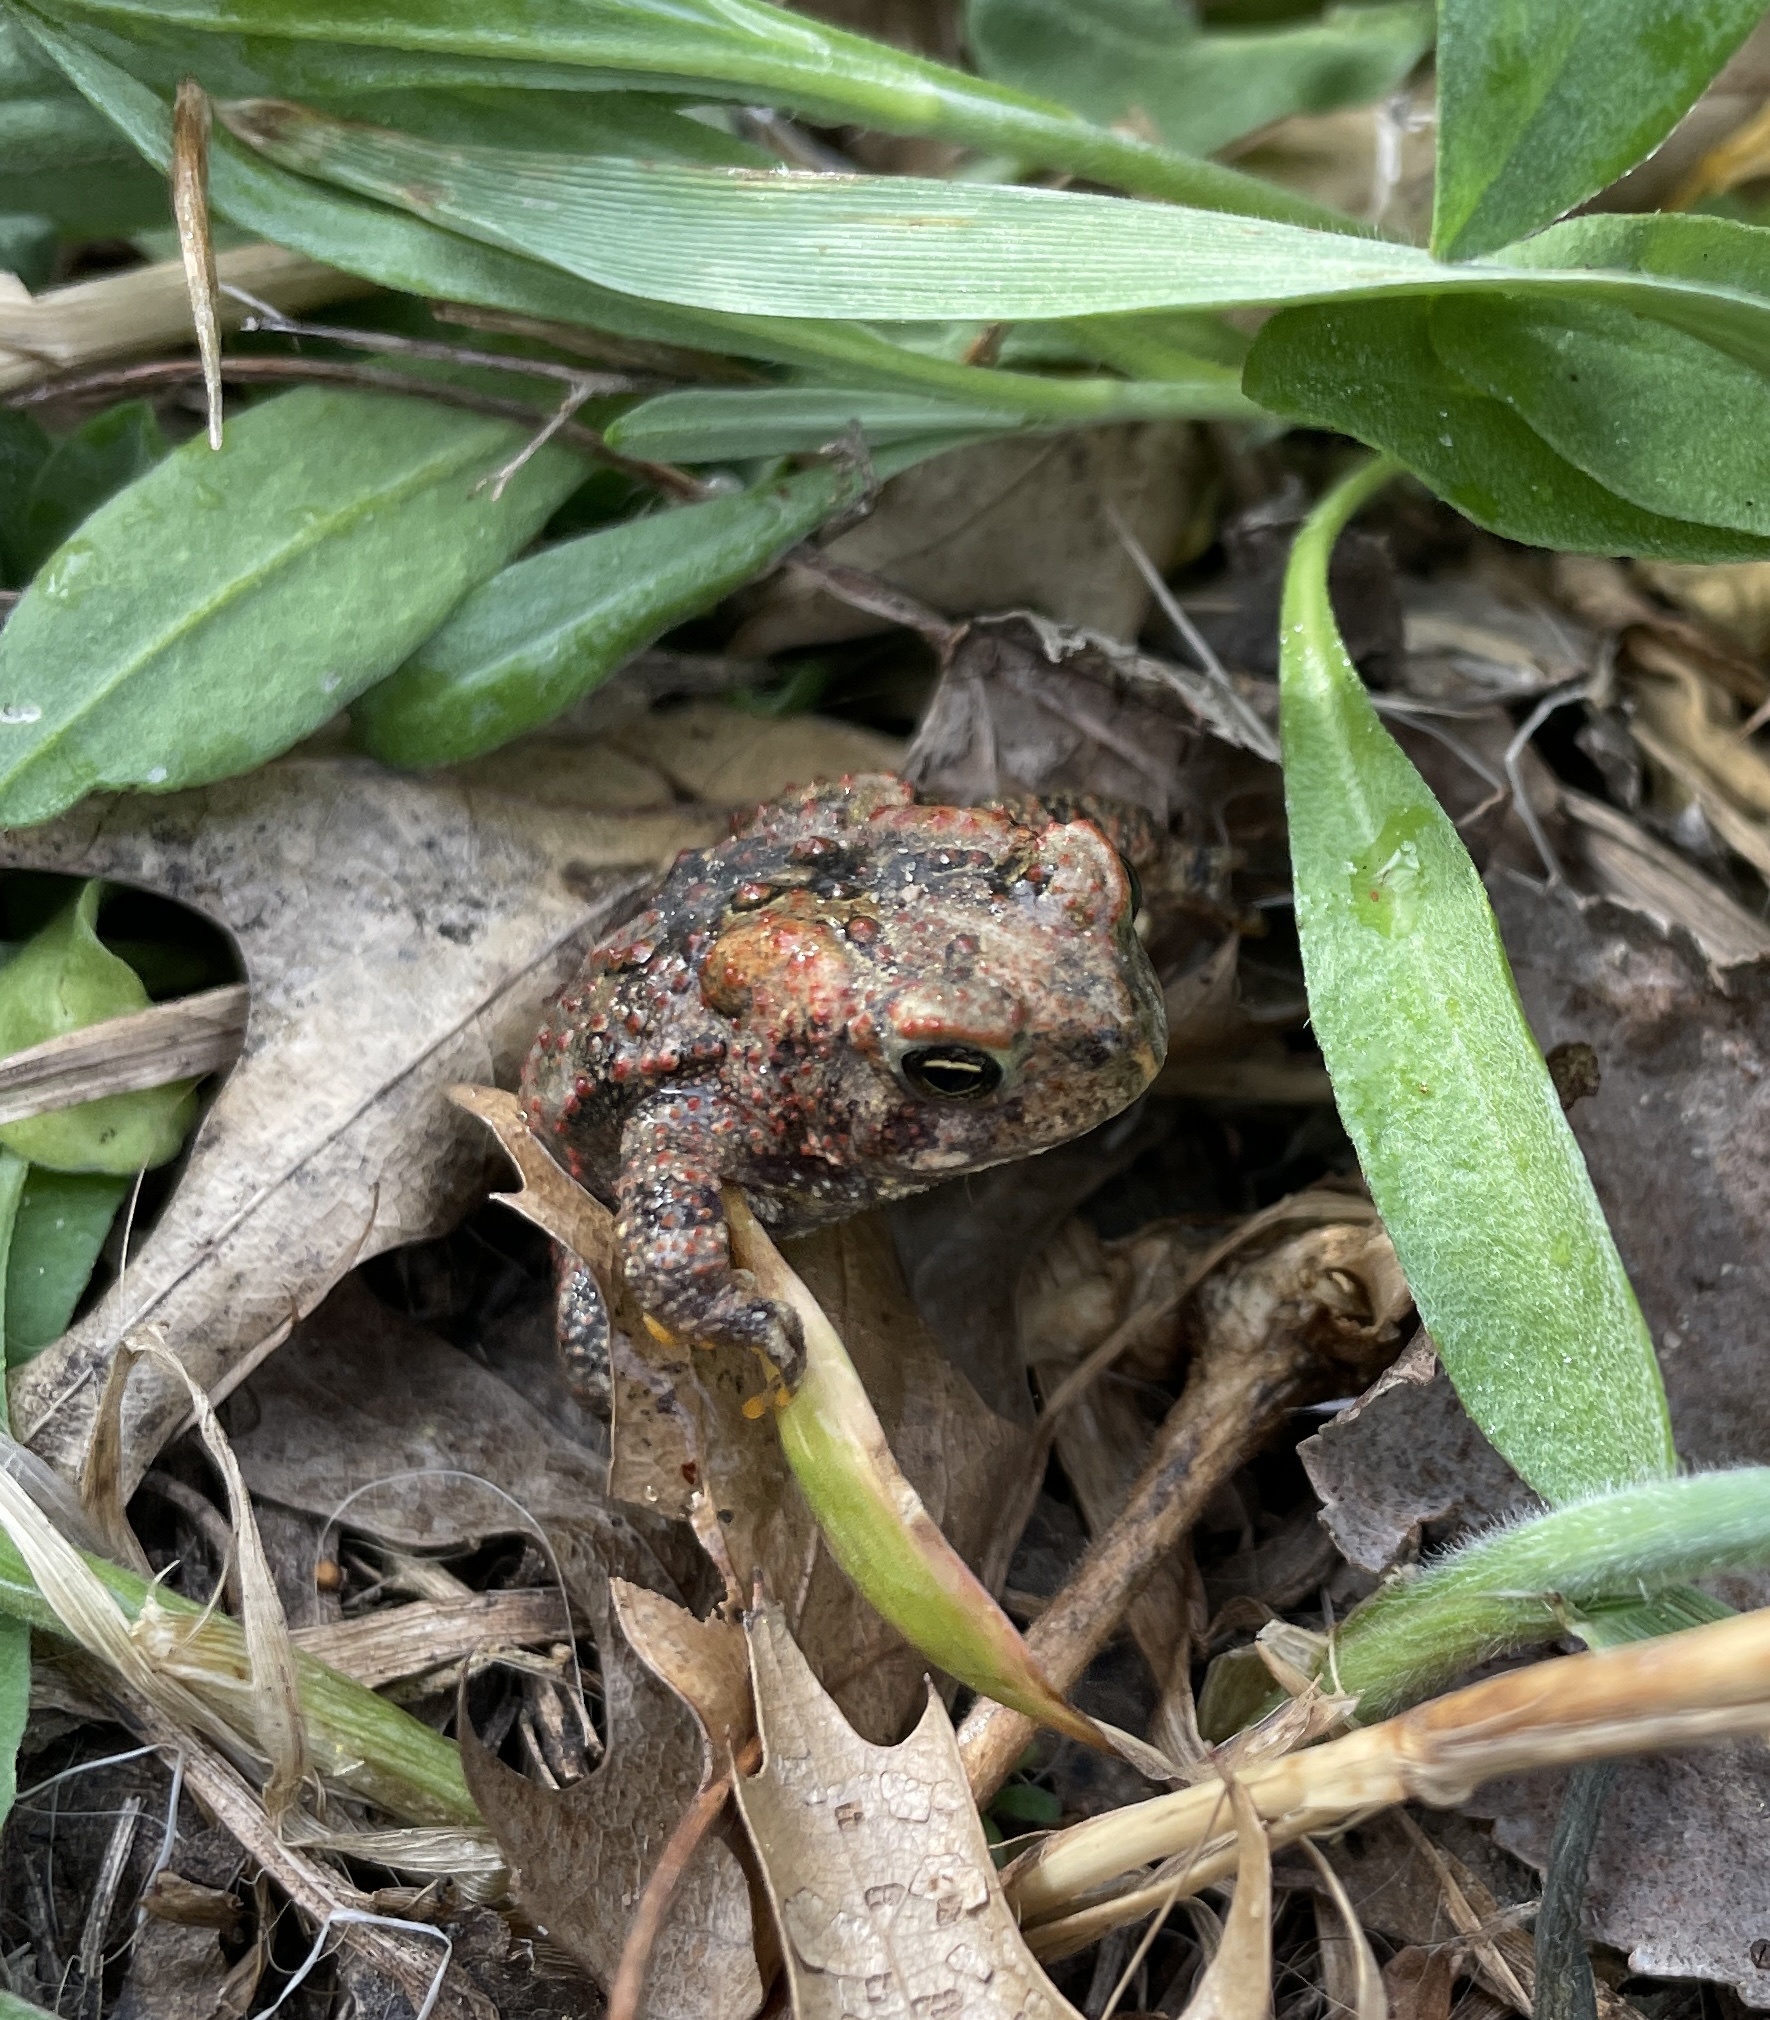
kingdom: Animalia
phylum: Chordata
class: Amphibia
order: Anura
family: Bufonidae
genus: Anaxyrus
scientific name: Anaxyrus americanus
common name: American toad
